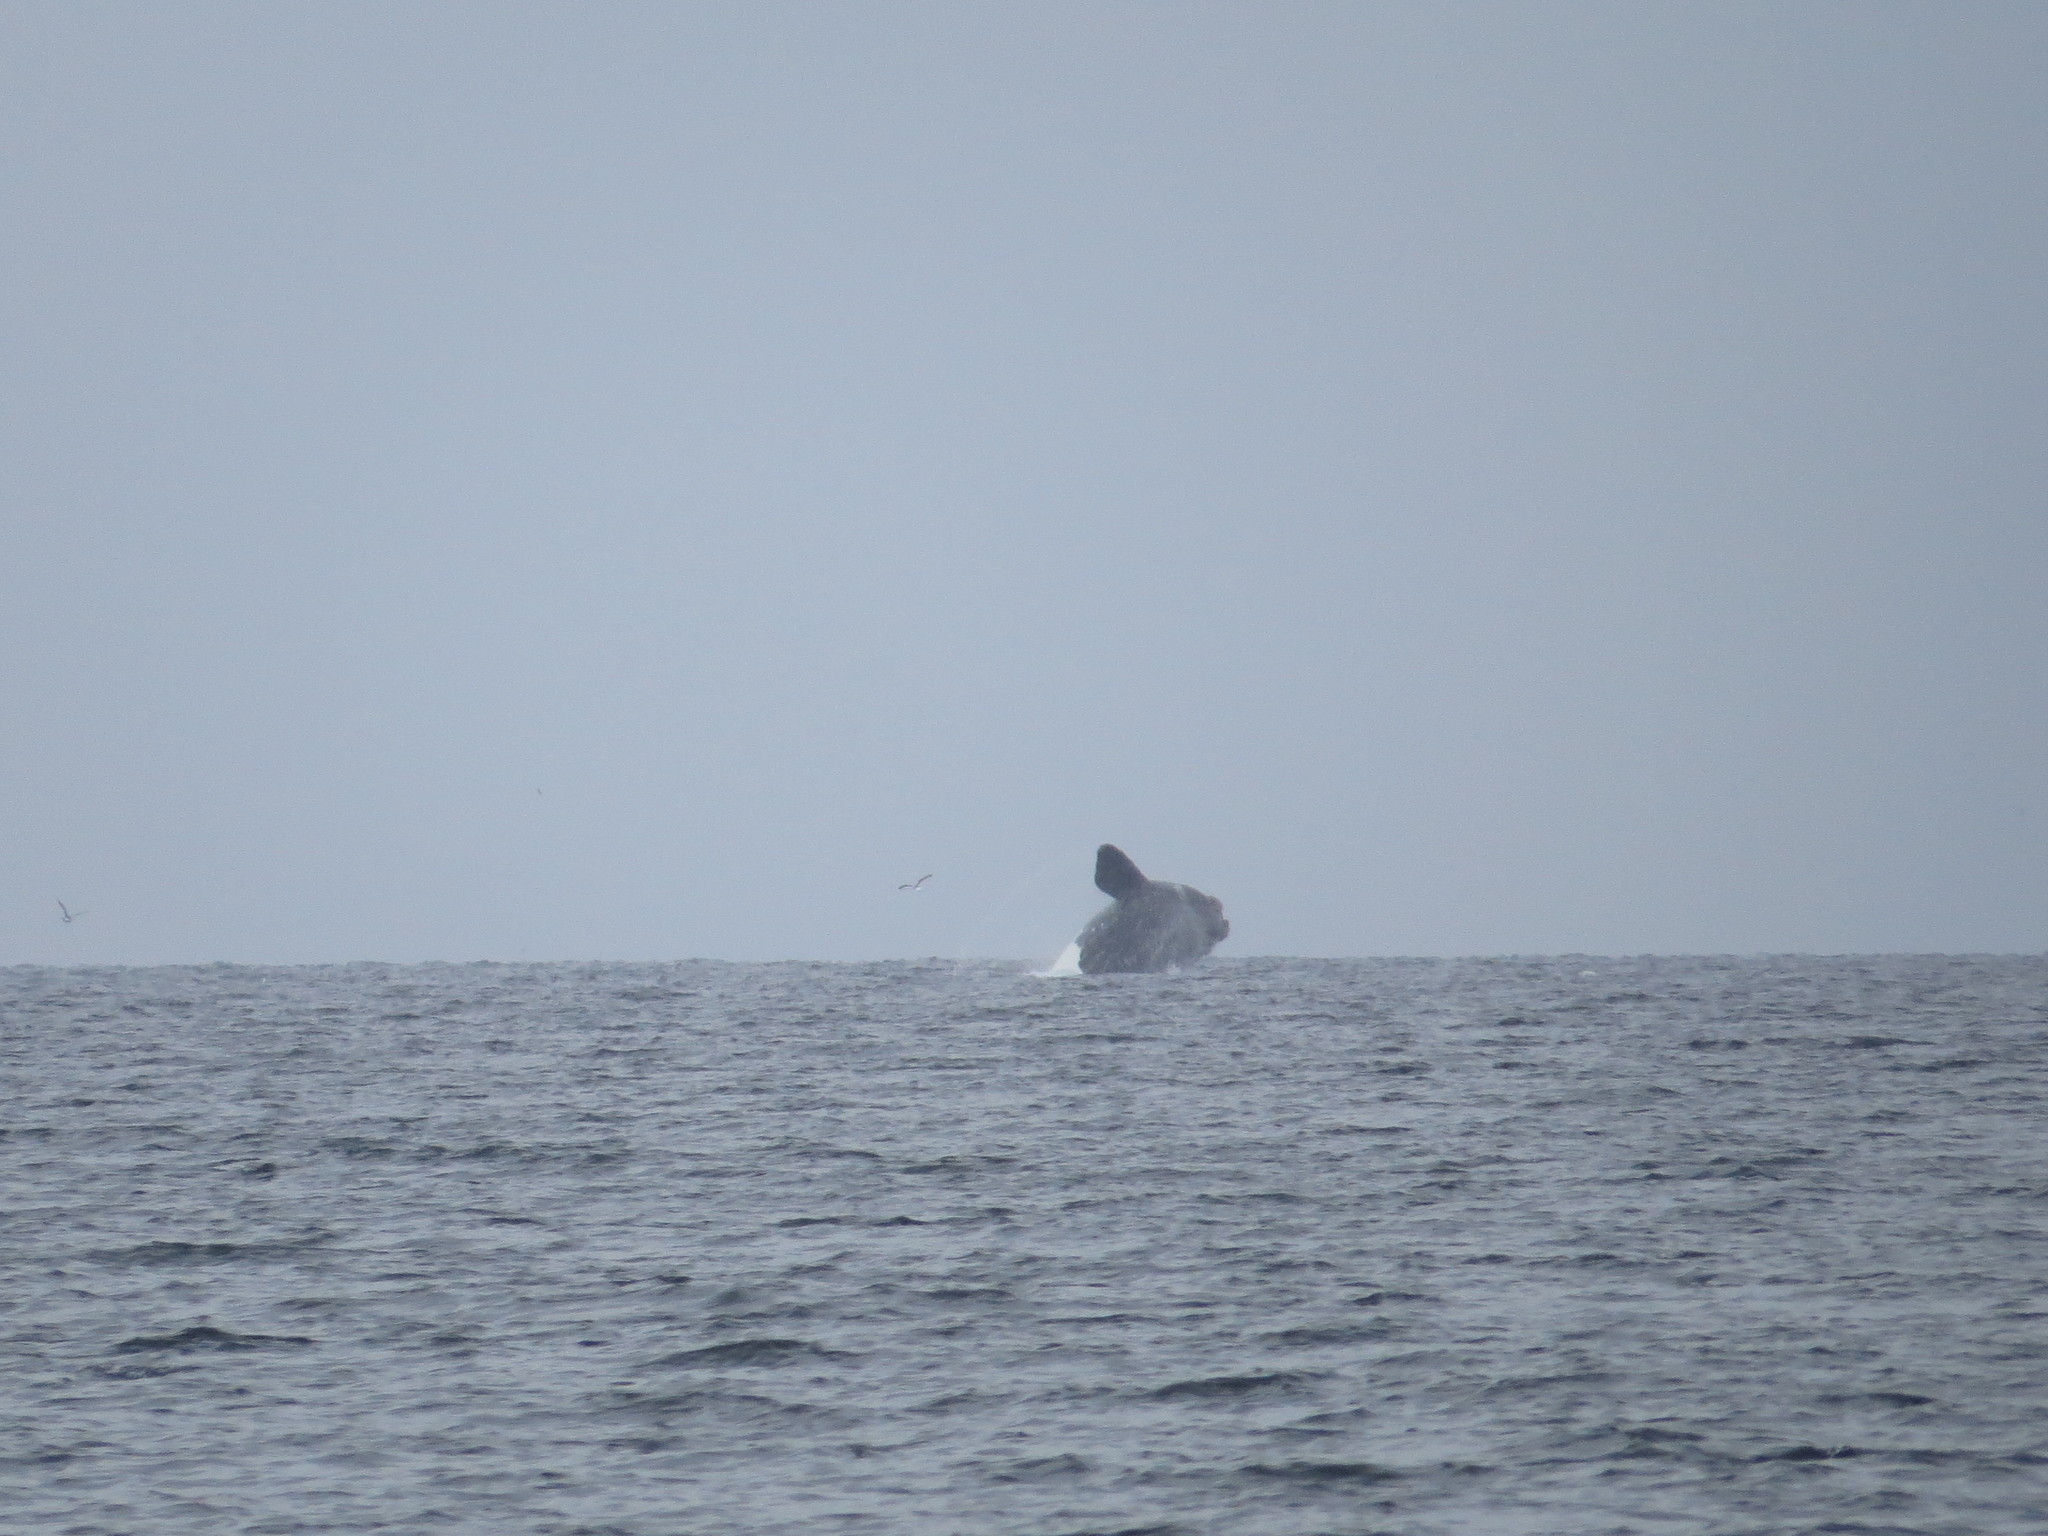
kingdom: Animalia
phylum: Chordata
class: Mammalia
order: Cetacea
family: Balaenidae
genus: Eubalaena
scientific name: Eubalaena australis
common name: Southern right whale
